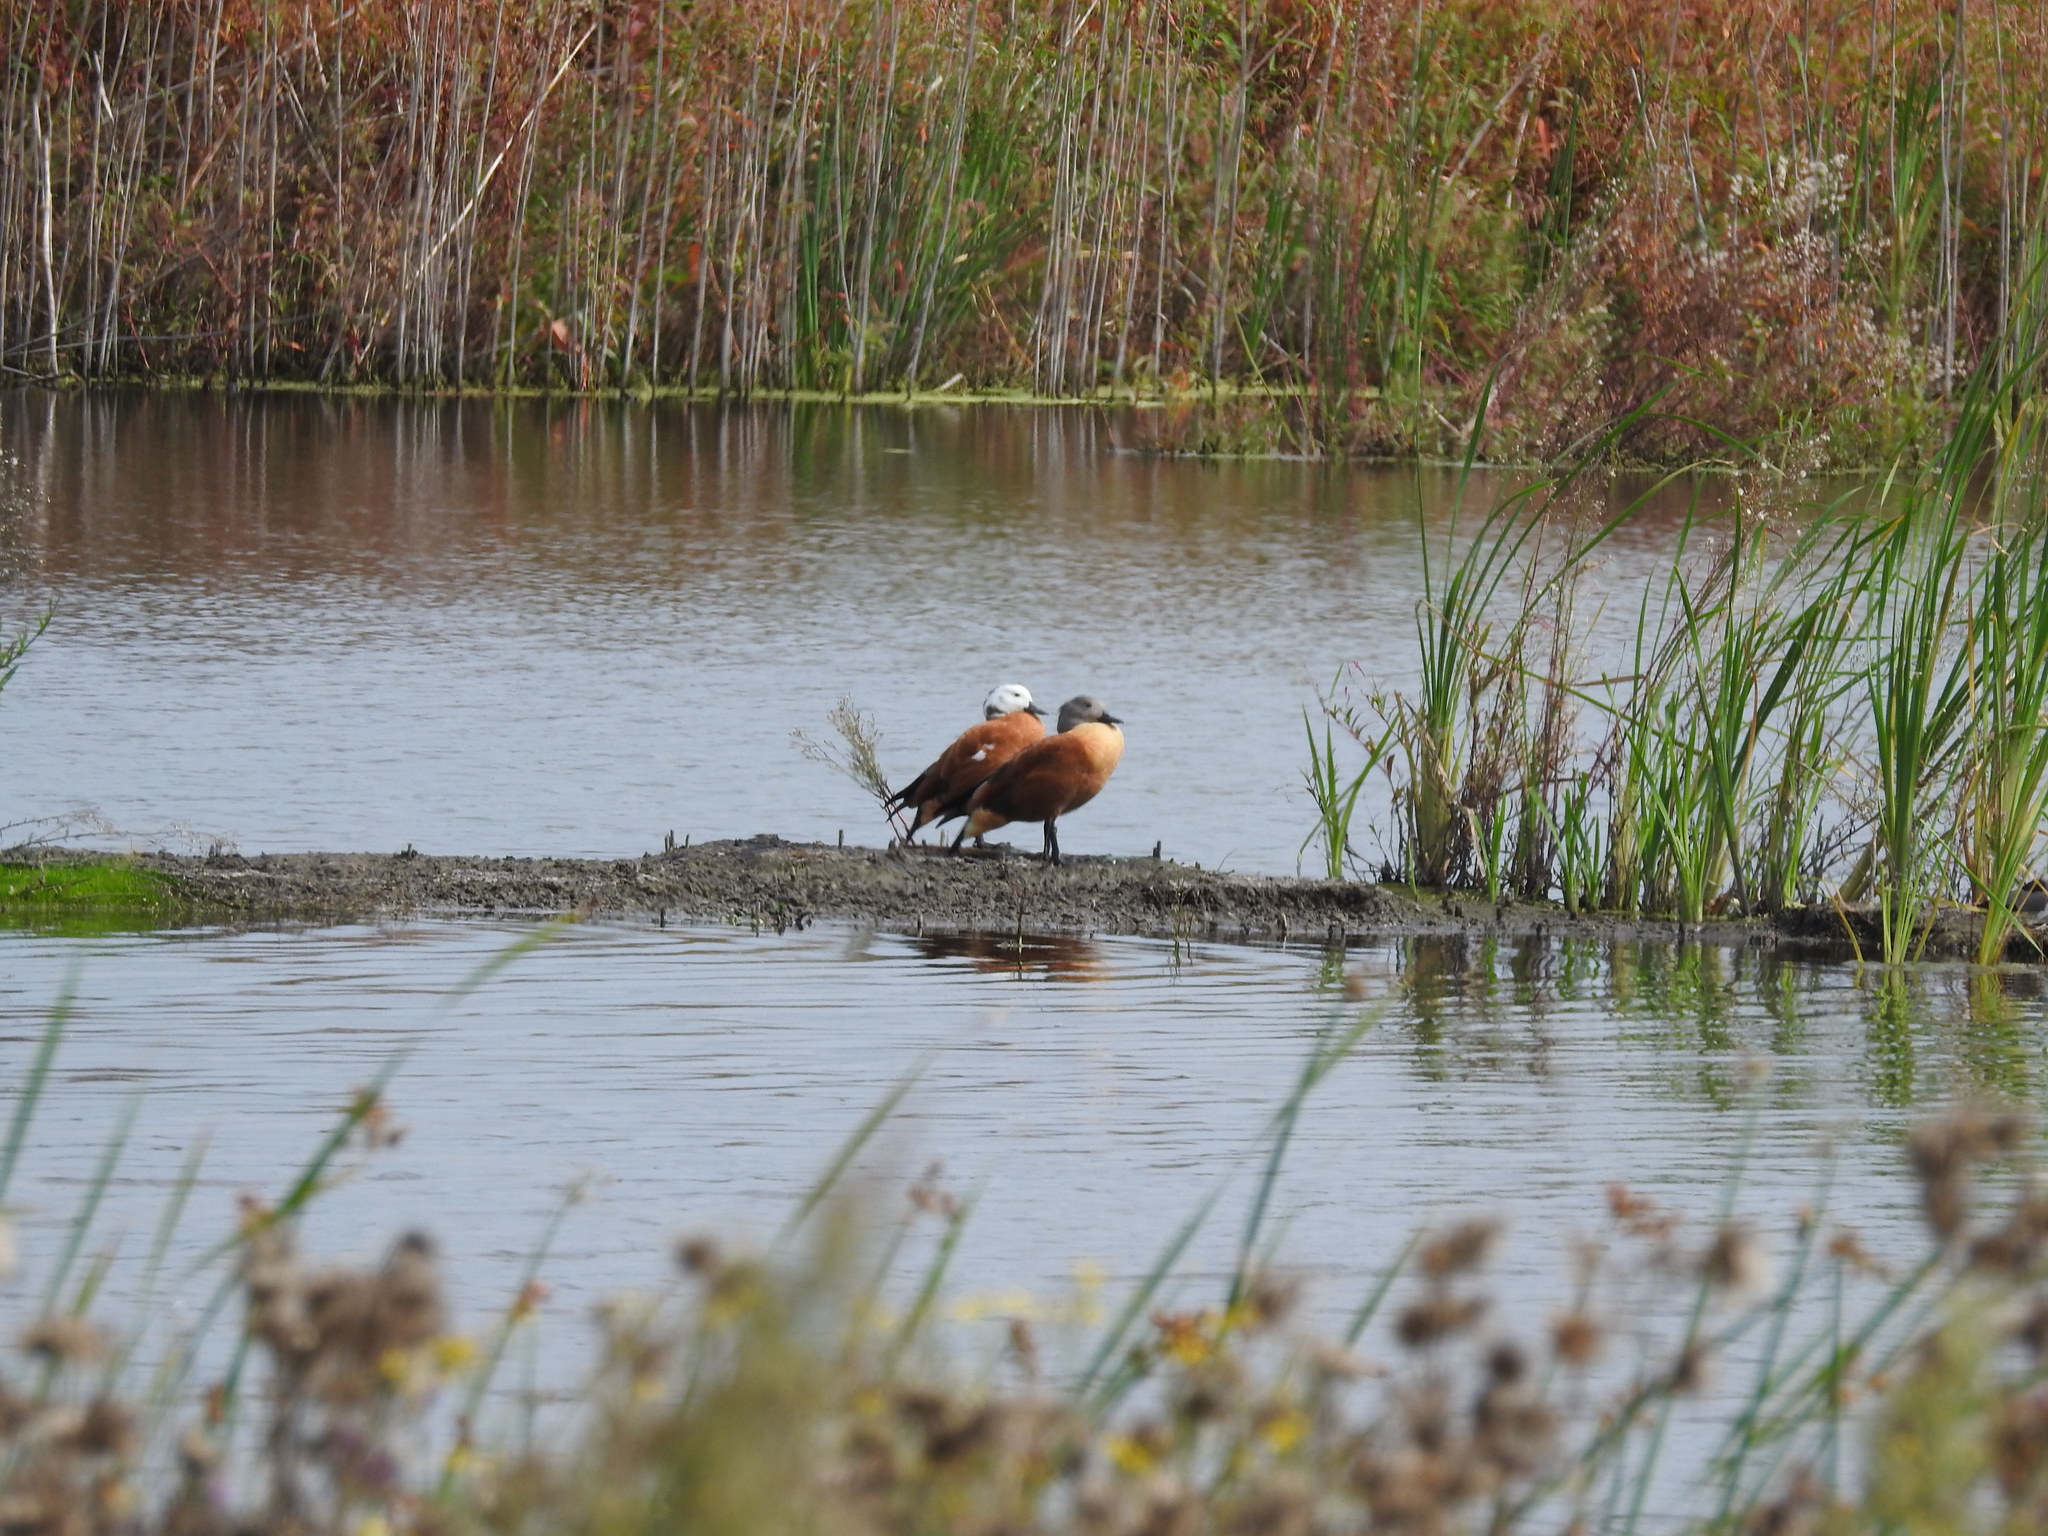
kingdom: Animalia
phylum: Chordata
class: Aves
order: Anseriformes
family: Anatidae
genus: Tadorna
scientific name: Tadorna cana
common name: South african shelduck
